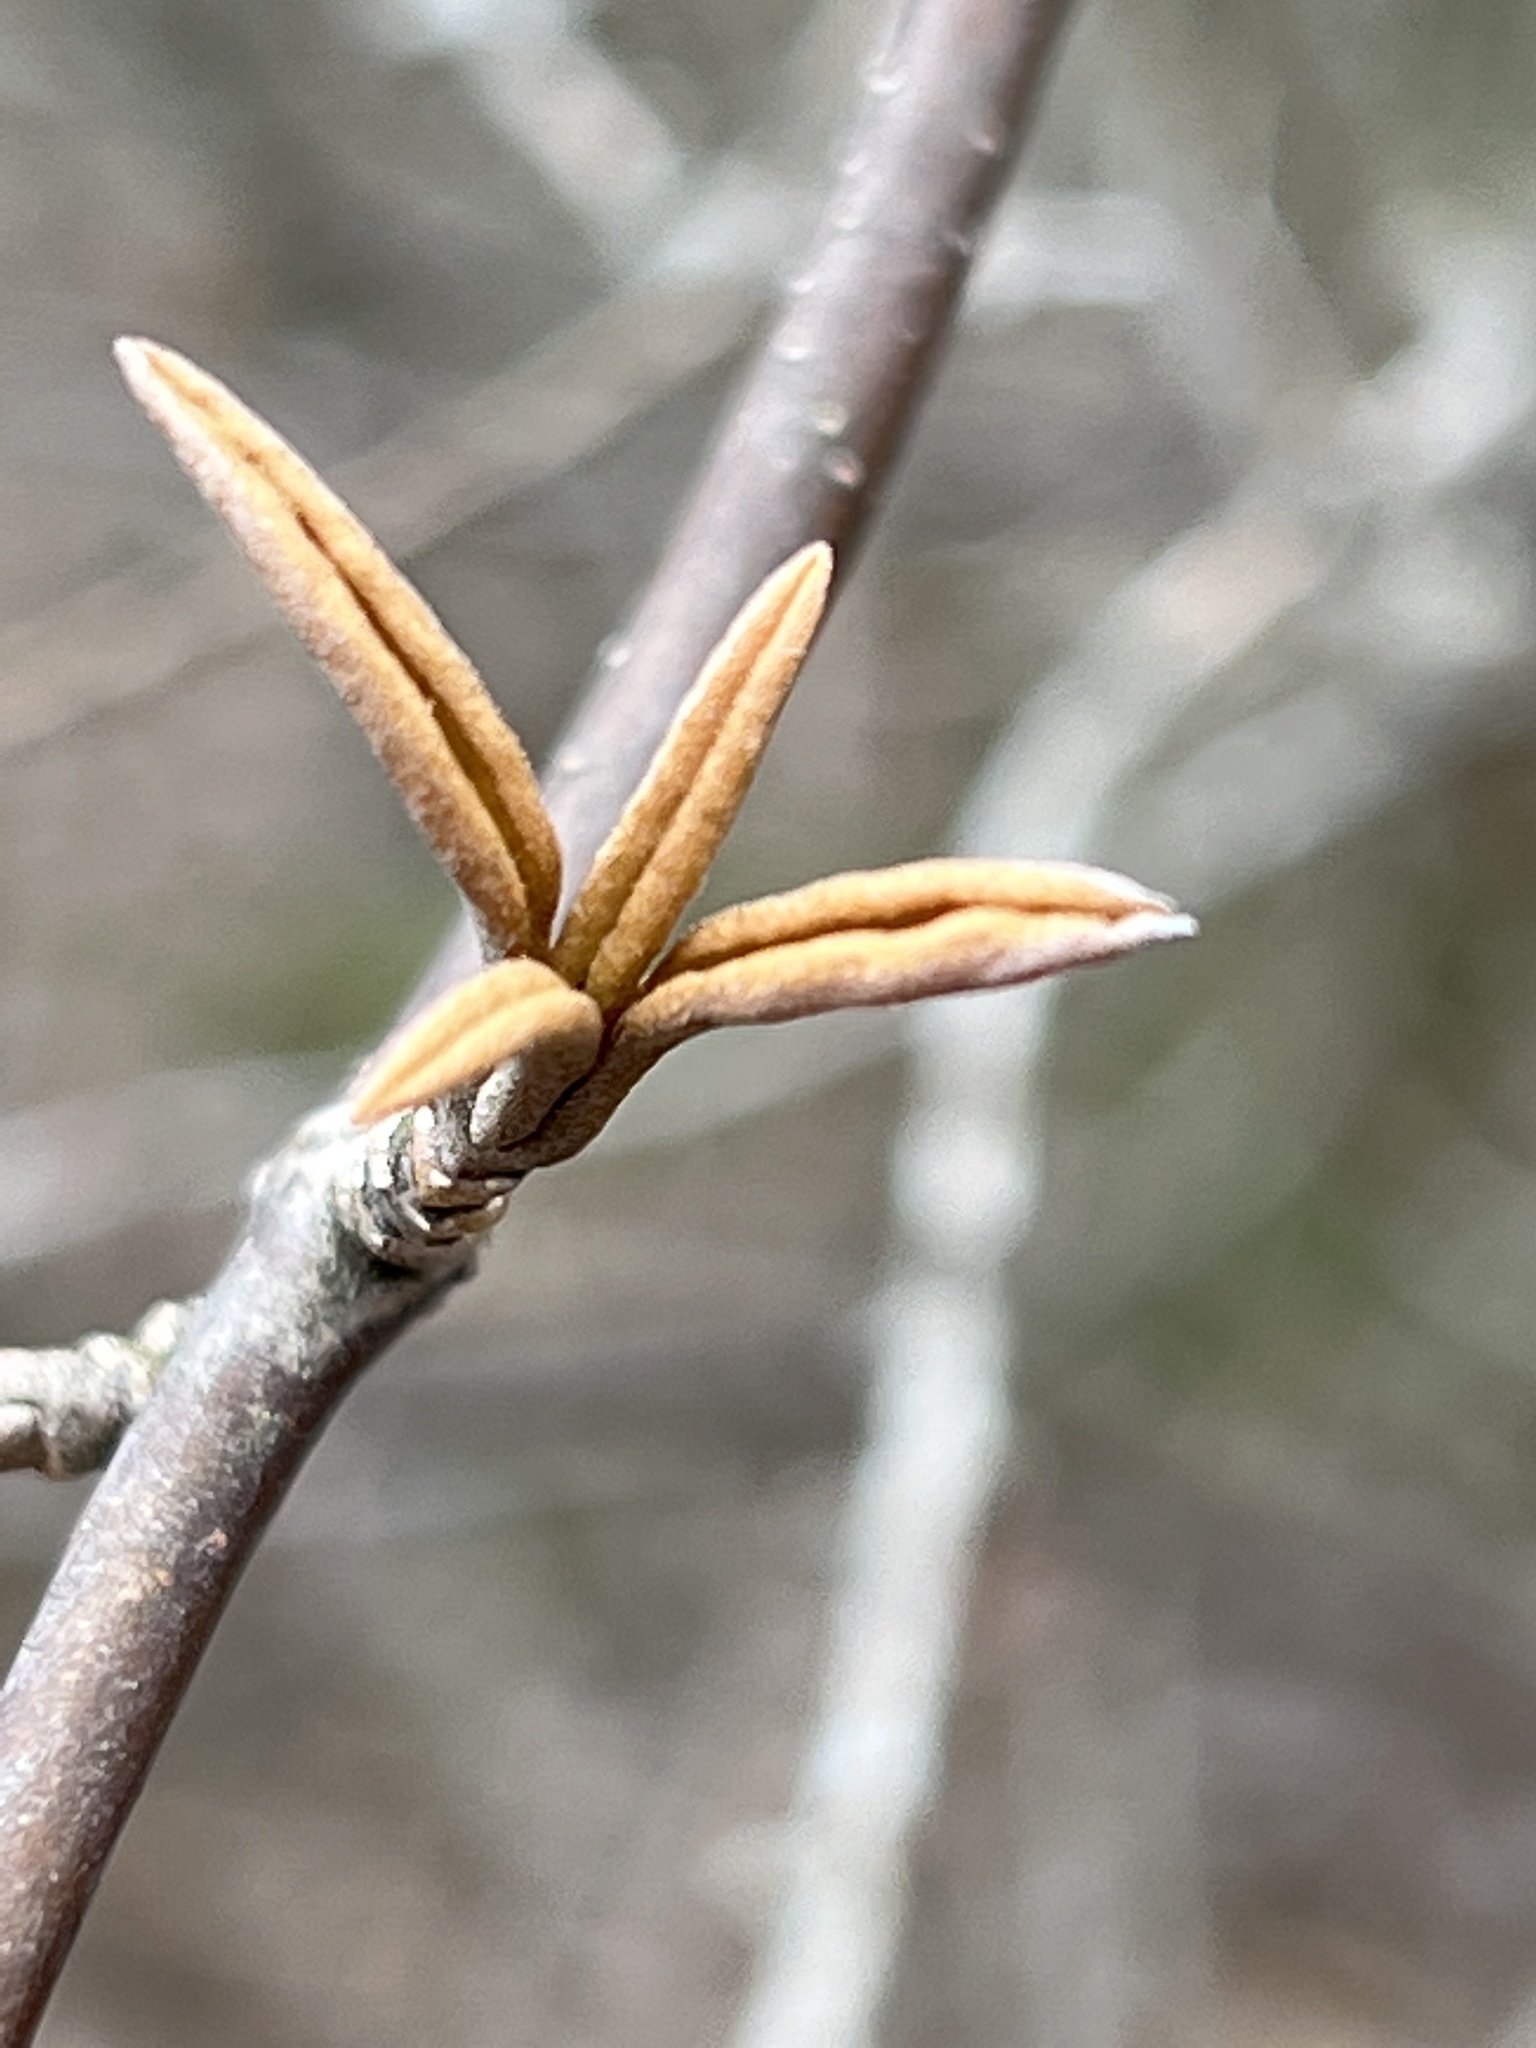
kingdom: Plantae
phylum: Tracheophyta
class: Magnoliopsida
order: Dipsacales
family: Viburnaceae
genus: Viburnum
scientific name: Viburnum cassinoides
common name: Swamp haw
